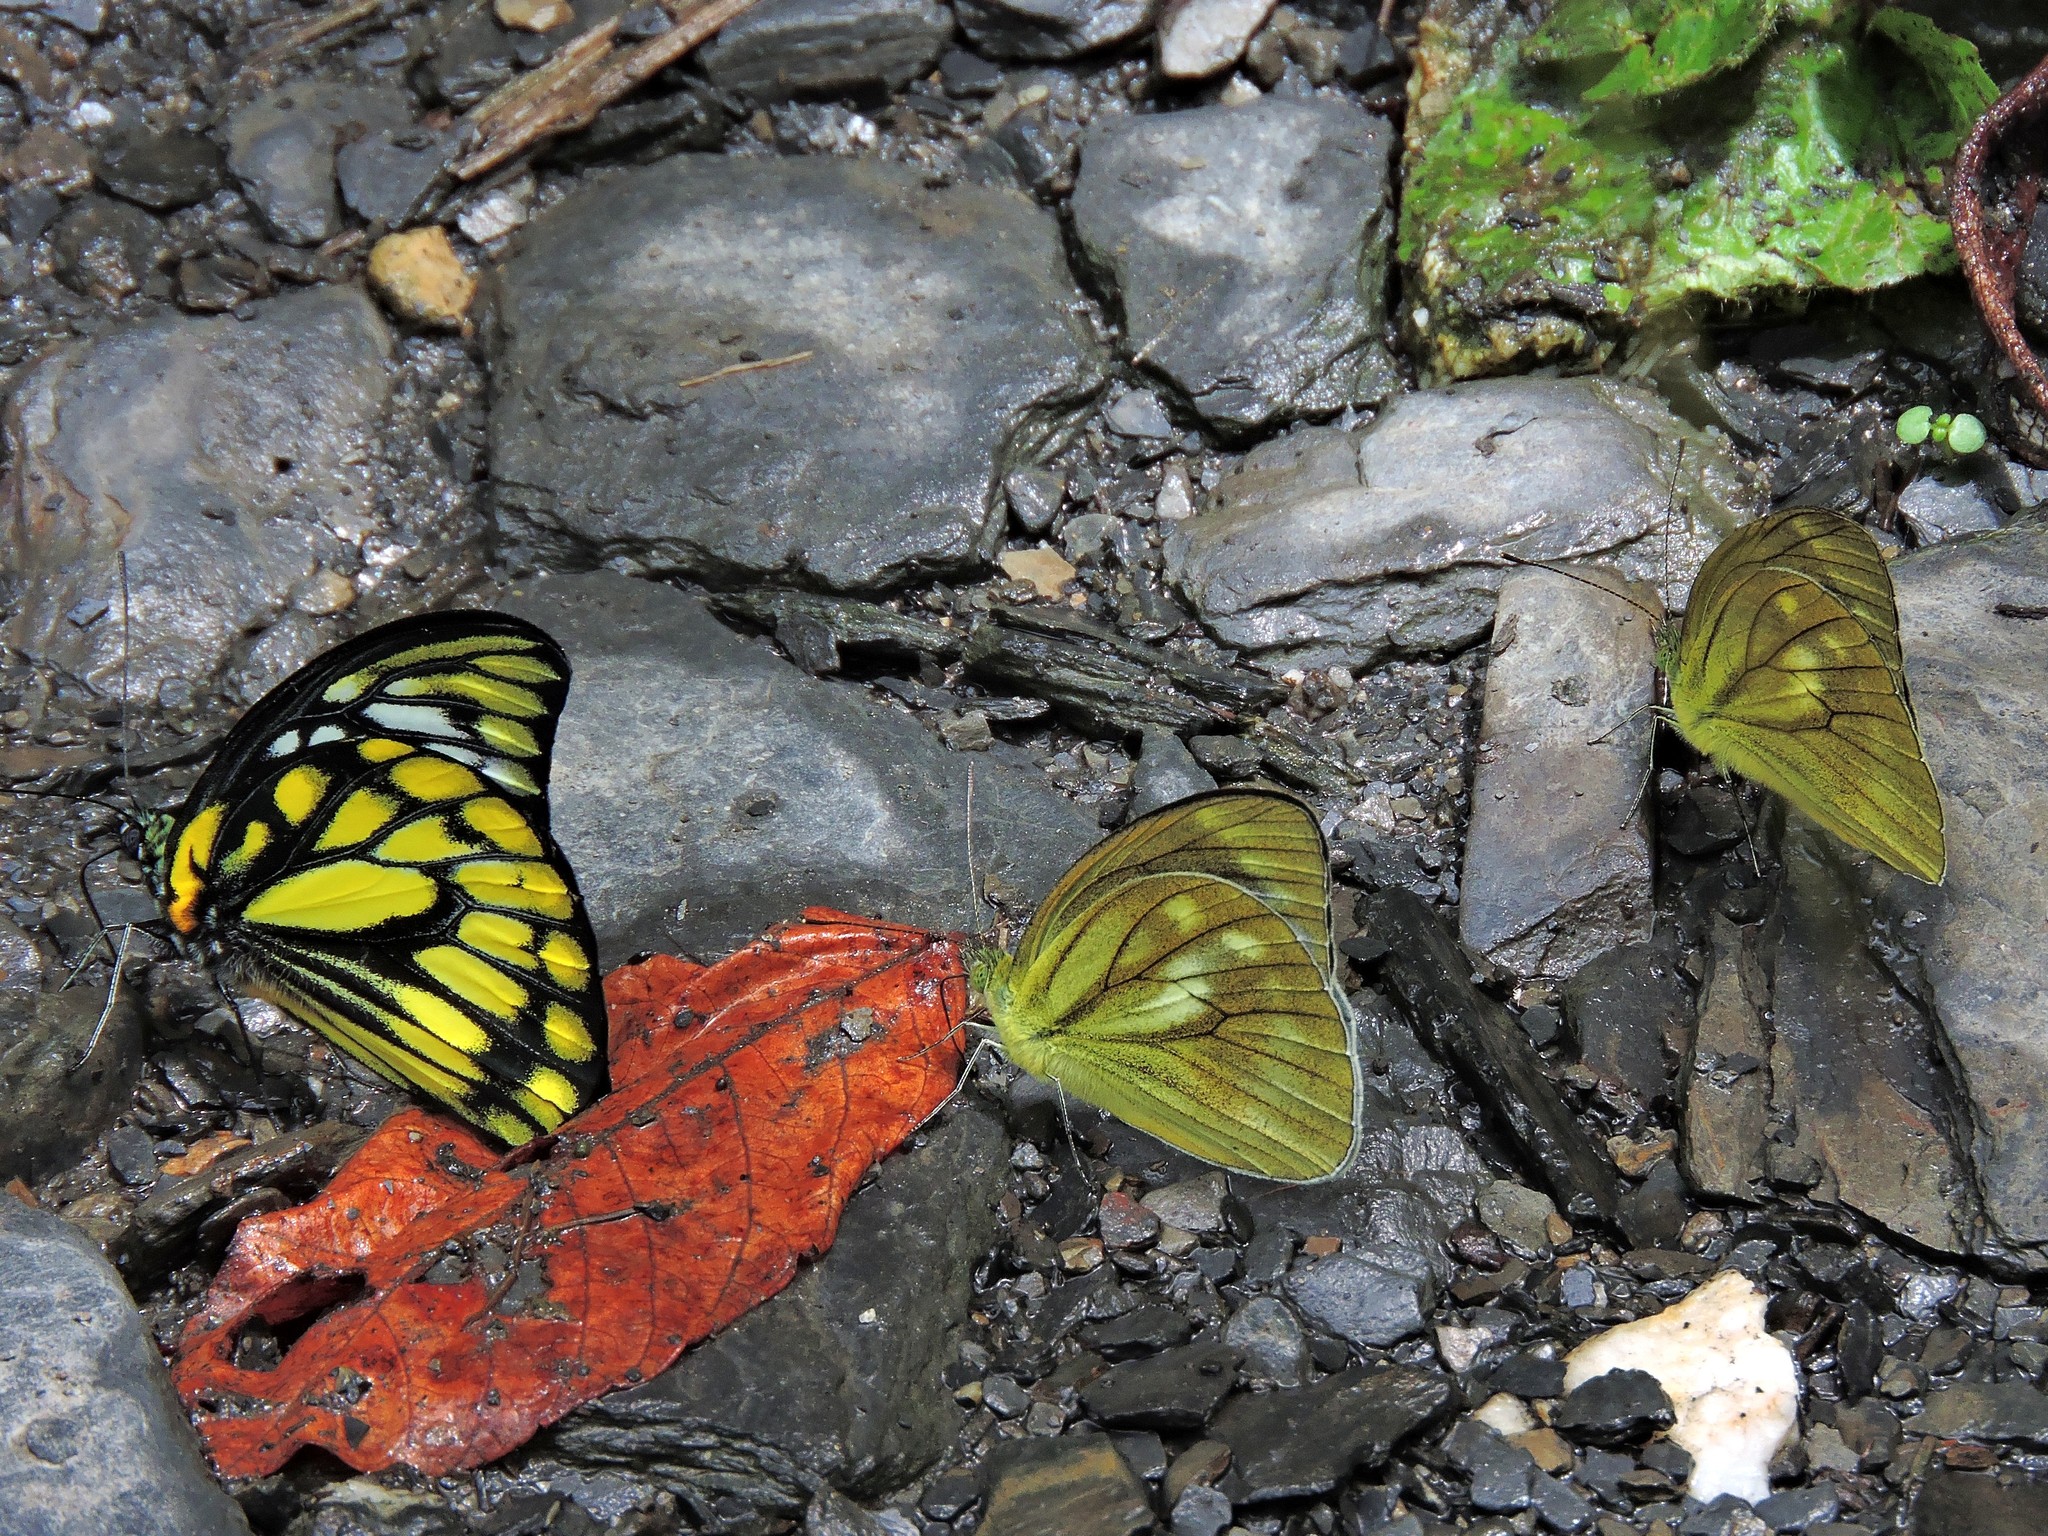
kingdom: Animalia
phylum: Arthropoda
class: Insecta
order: Lepidoptera
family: Pieridae
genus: Cepora
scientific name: Cepora nadina
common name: Lesser gull
